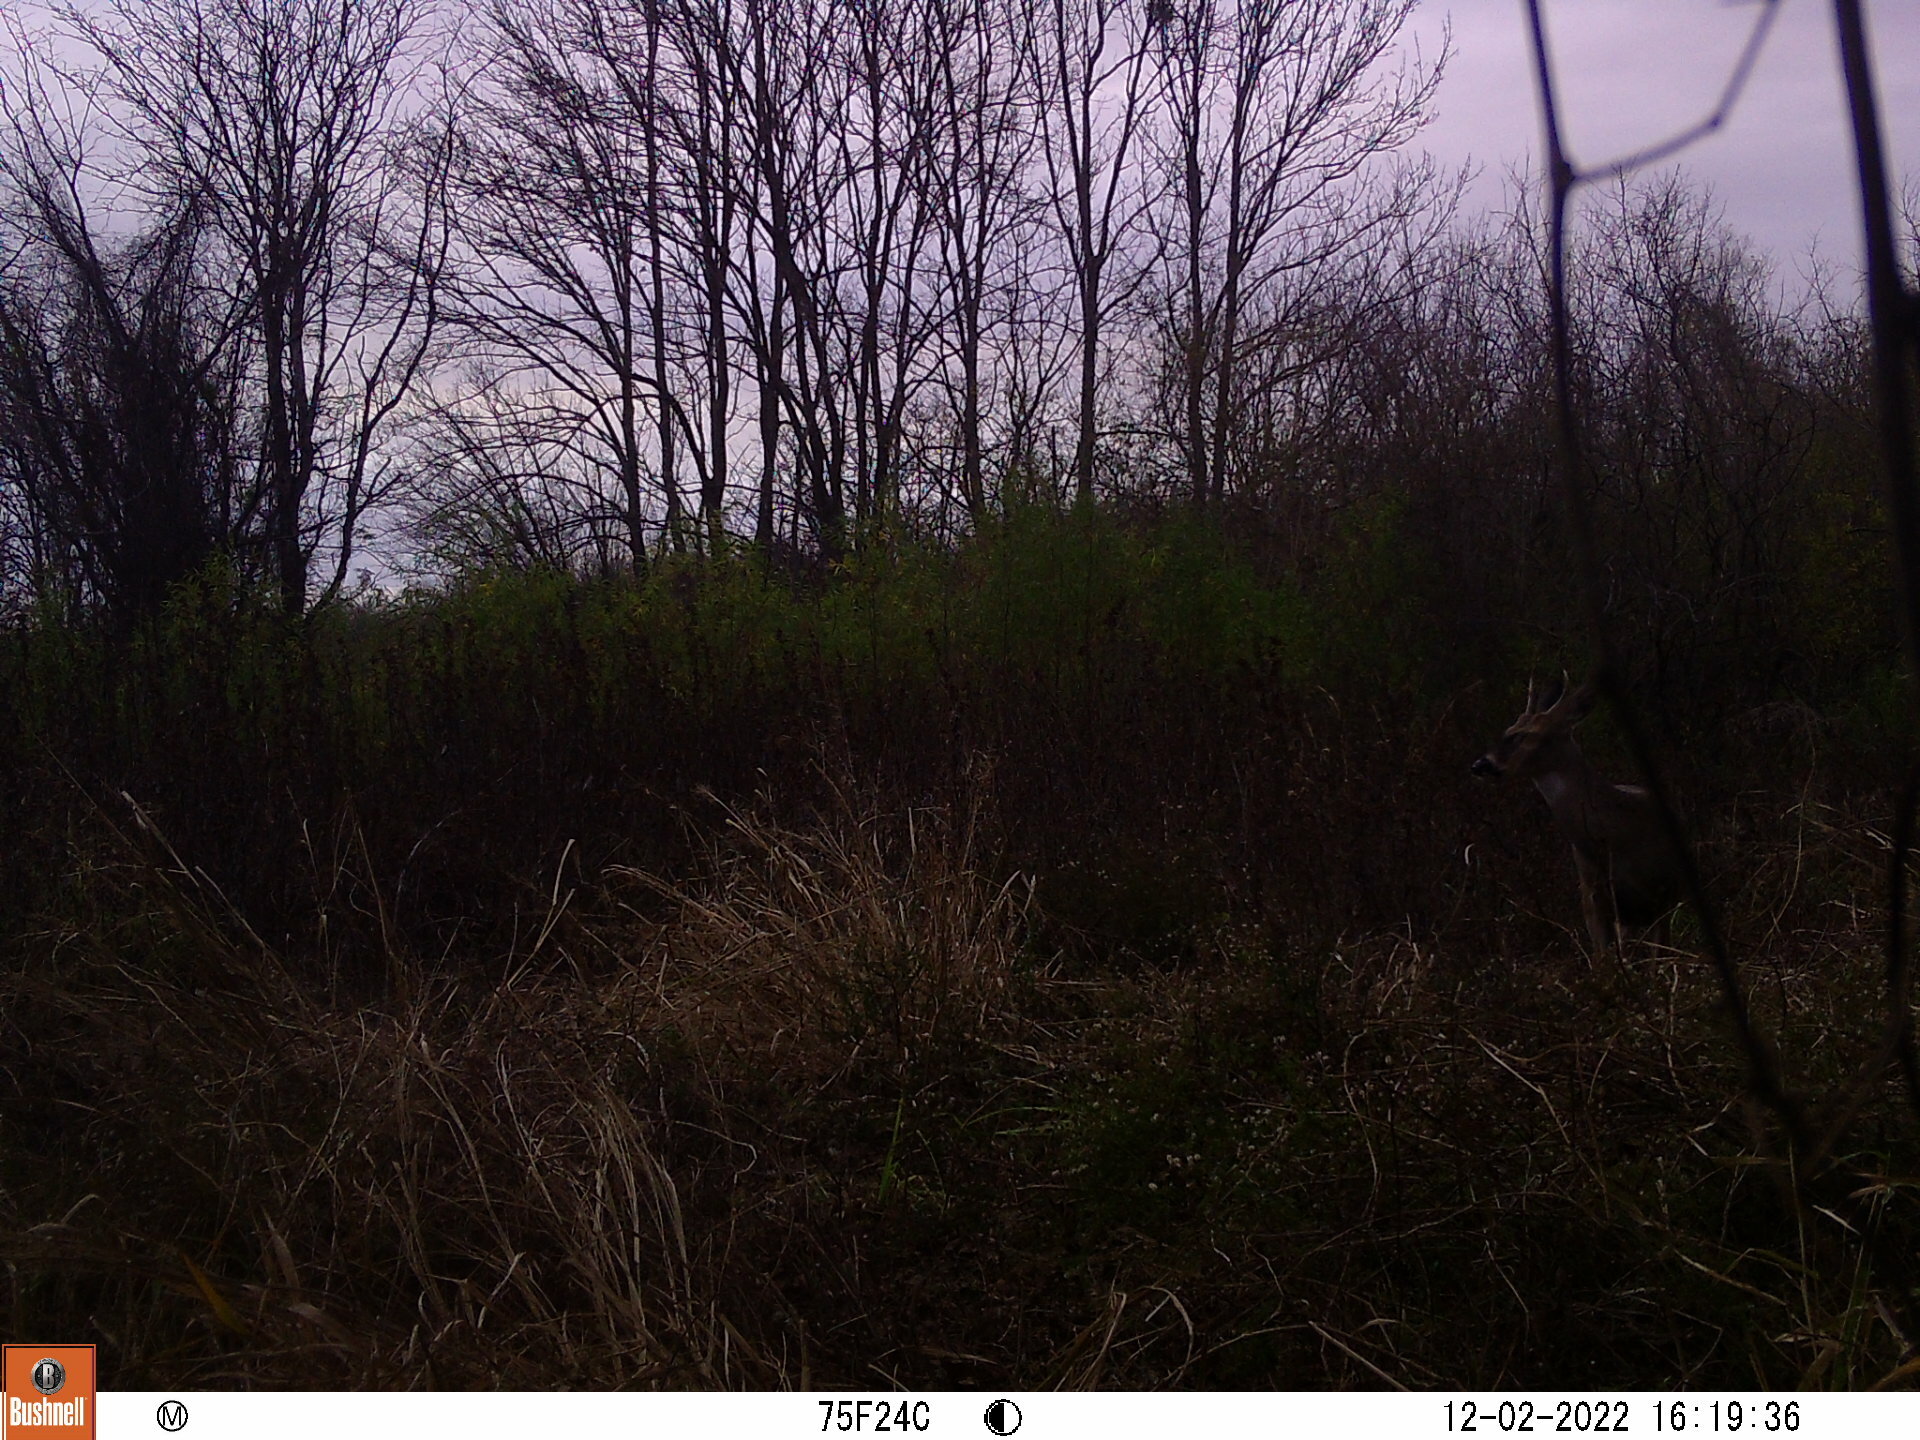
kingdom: Animalia
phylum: Chordata
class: Mammalia
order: Artiodactyla
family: Cervidae
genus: Odocoileus
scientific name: Odocoileus virginianus
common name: White-tailed deer
